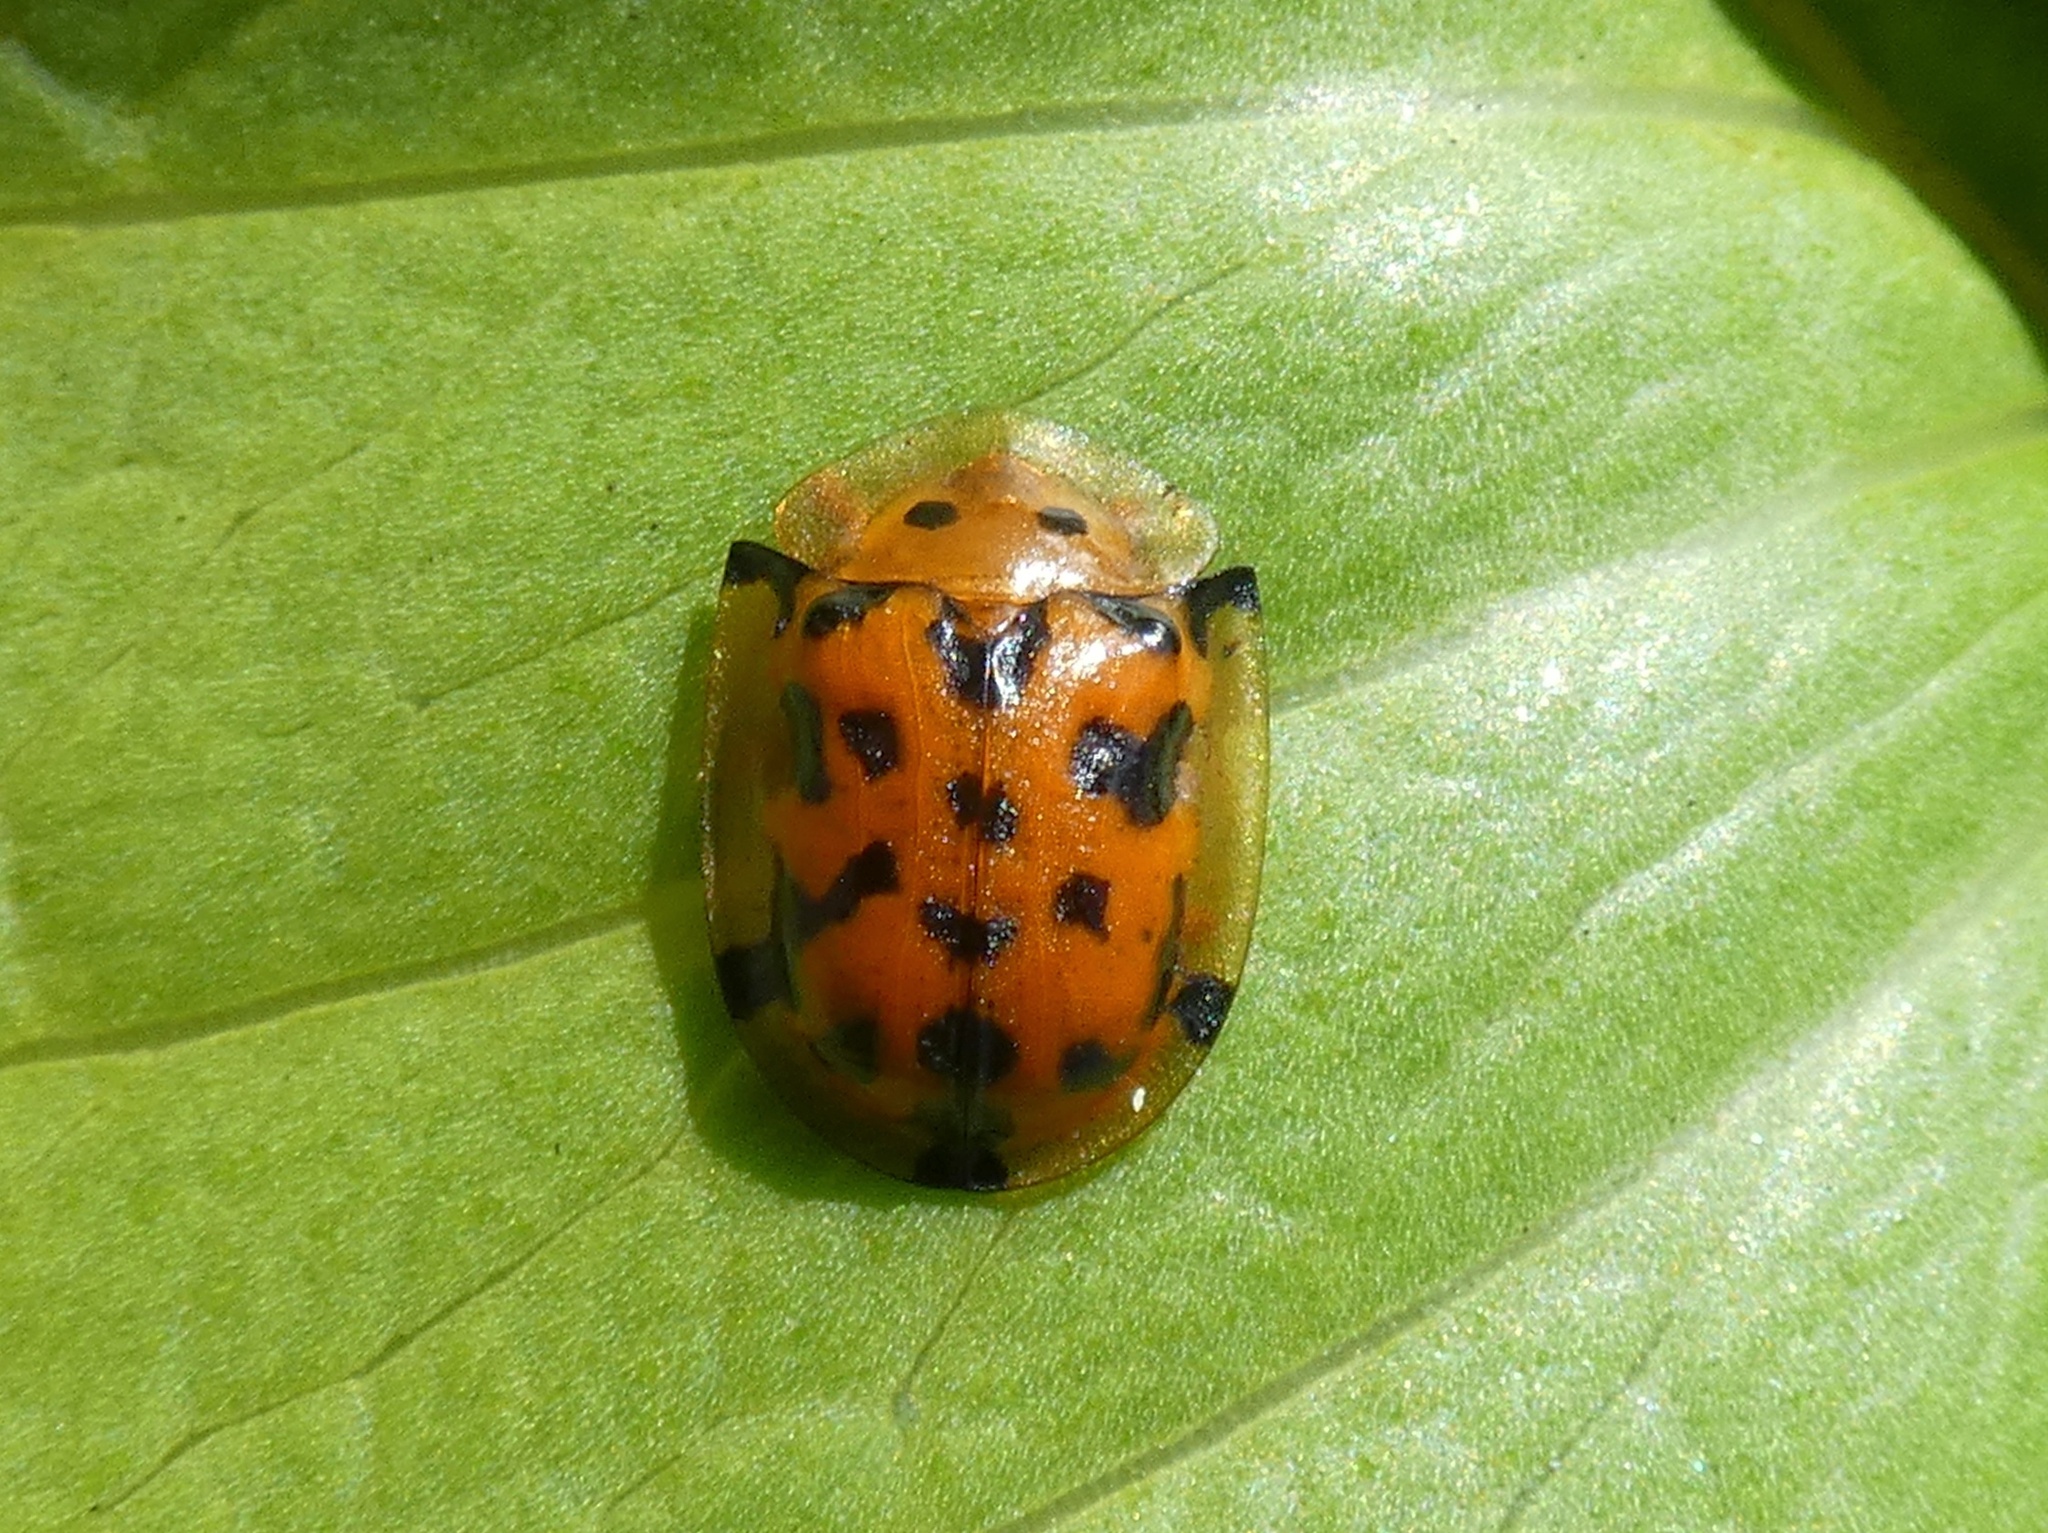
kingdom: Animalia
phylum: Arthropoda
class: Insecta
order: Coleoptera
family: Chrysomelidae
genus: Aspidimorpha
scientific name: Aspidimorpha deusta
